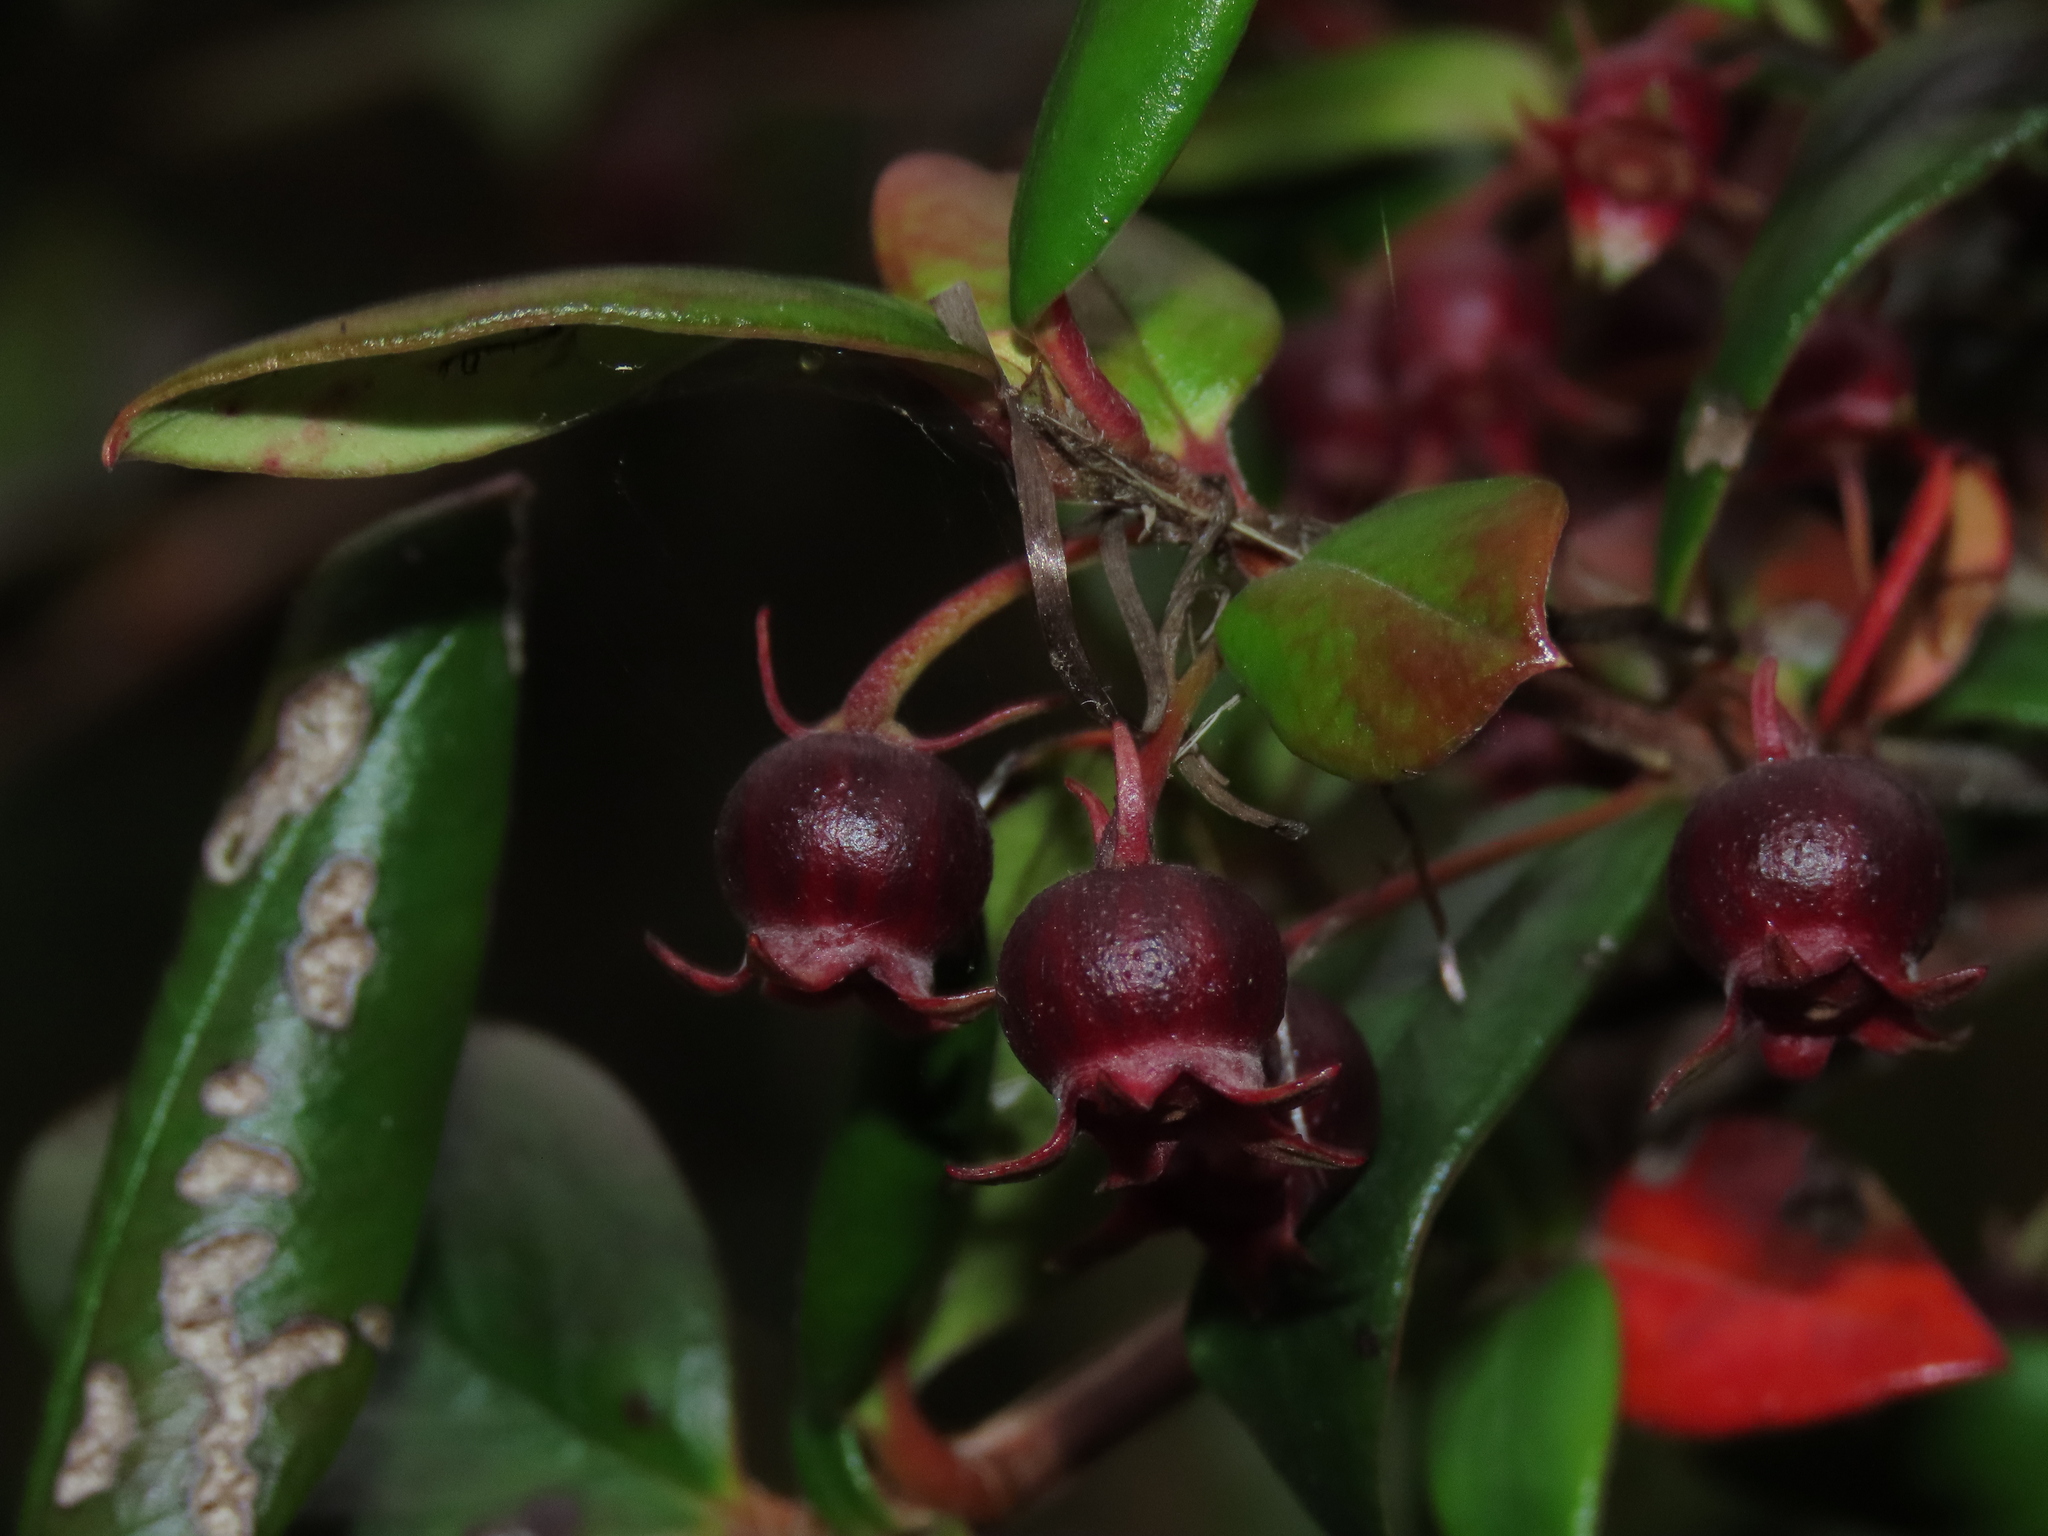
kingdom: Plantae
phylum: Tracheophyta
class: Magnoliopsida
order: Myrtales
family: Myrtaceae
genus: Ugni
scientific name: Ugni molinae
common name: Chilean-guava
